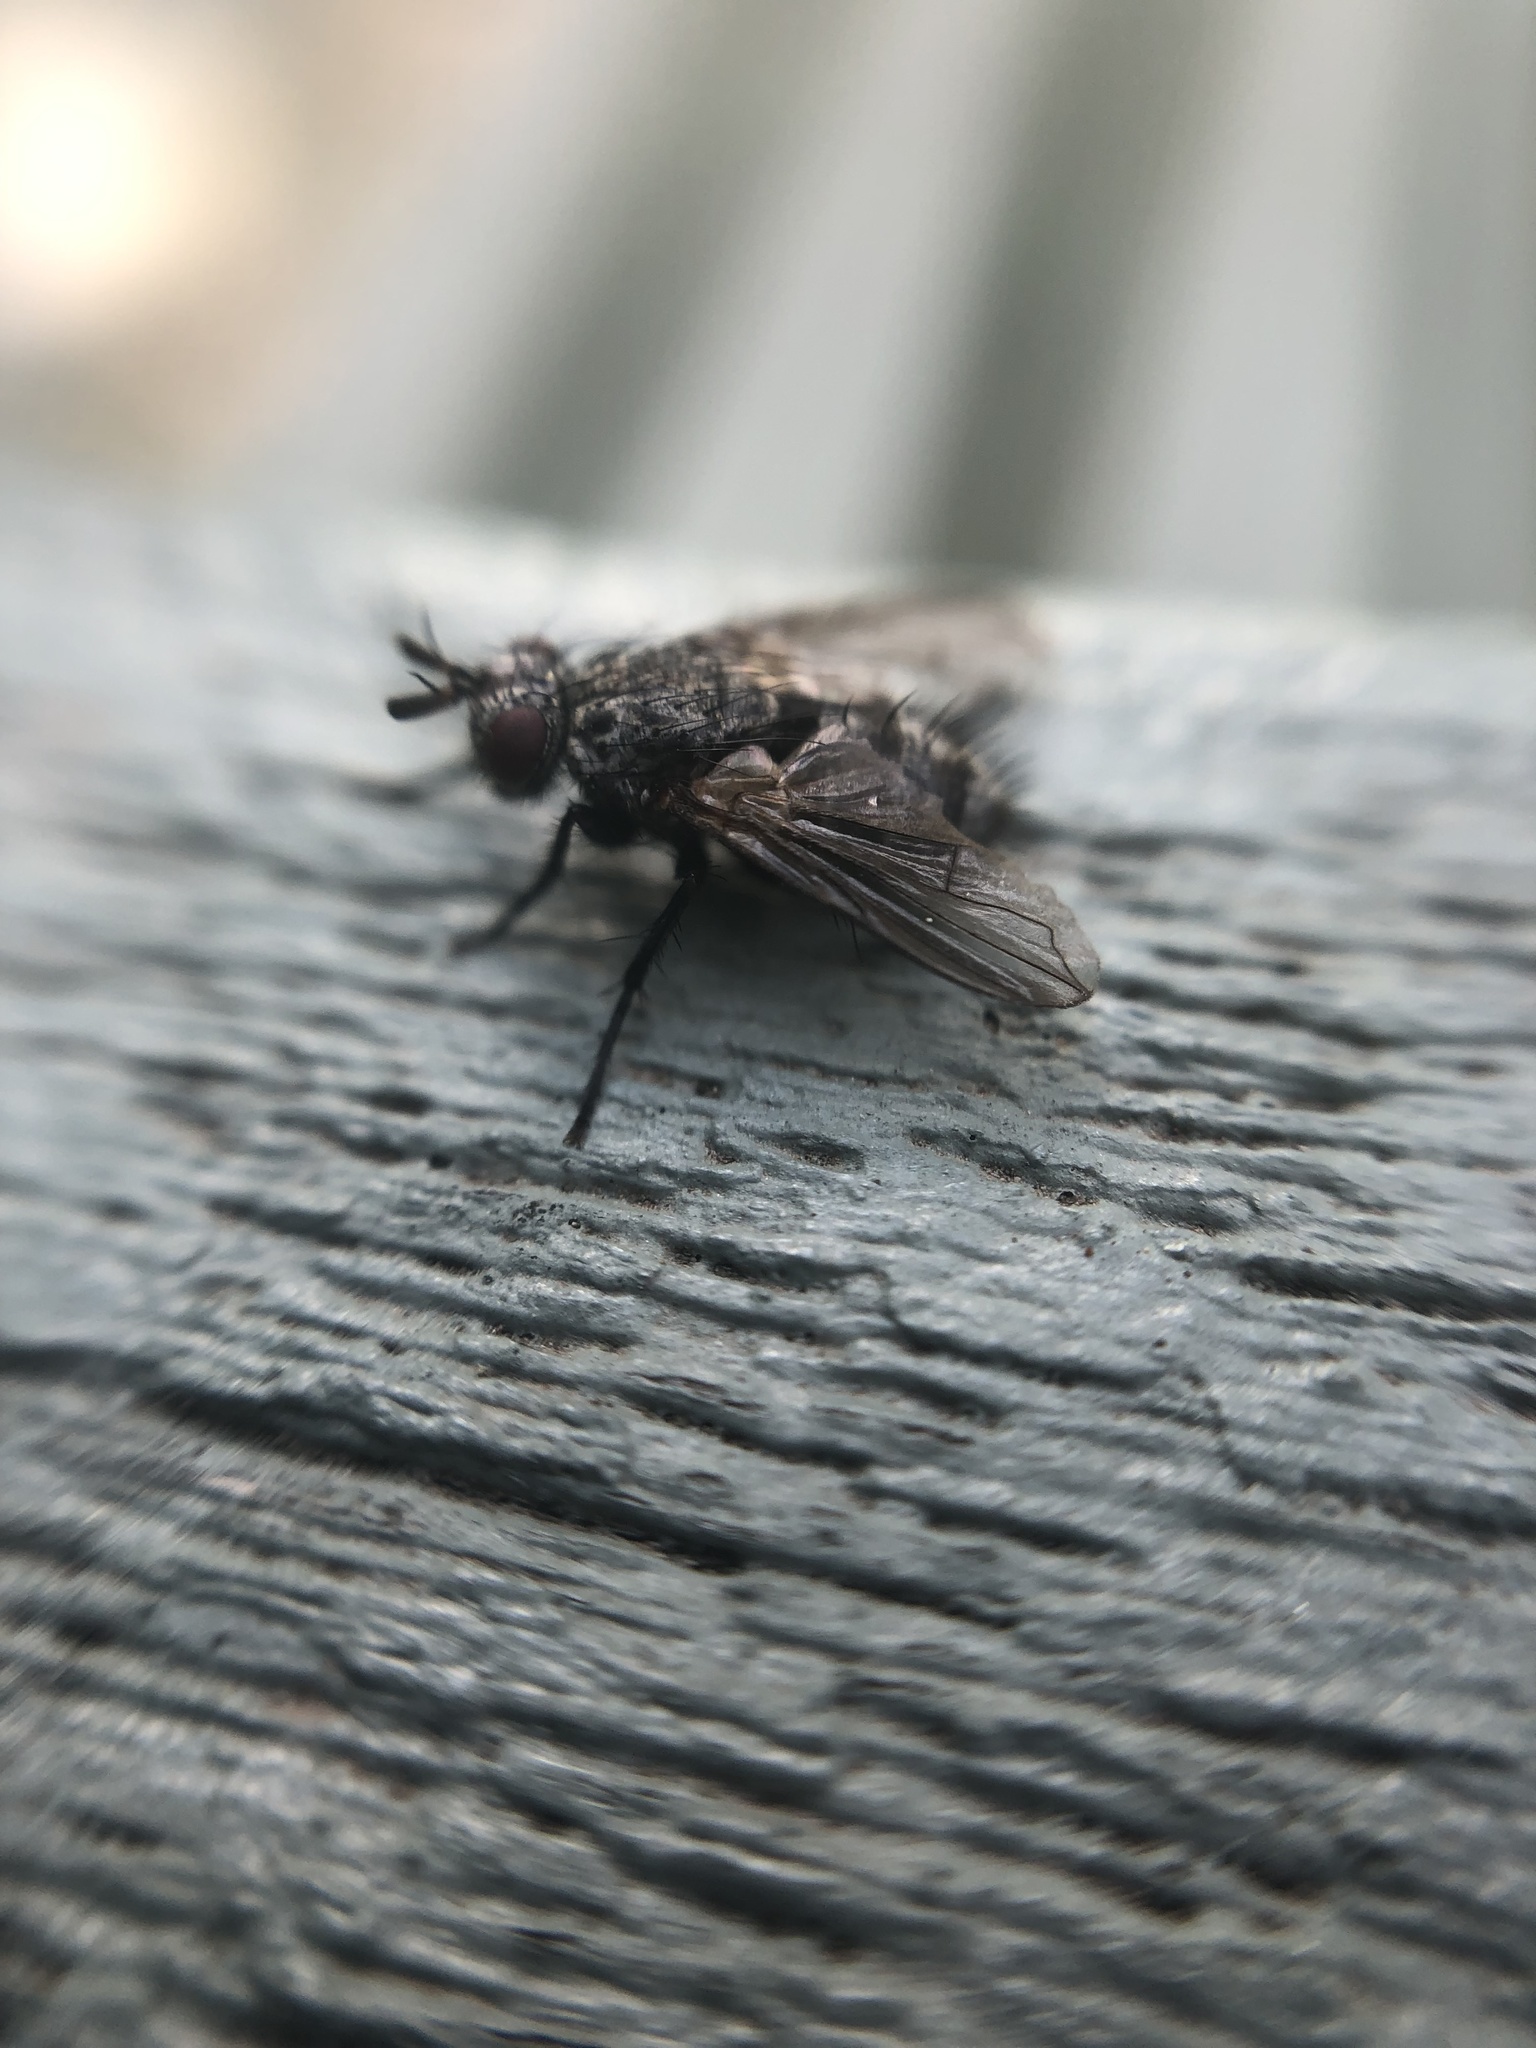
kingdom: Animalia
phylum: Arthropoda
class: Insecta
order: Diptera
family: Tachinidae
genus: Triarthria
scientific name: Triarthria setipennis
